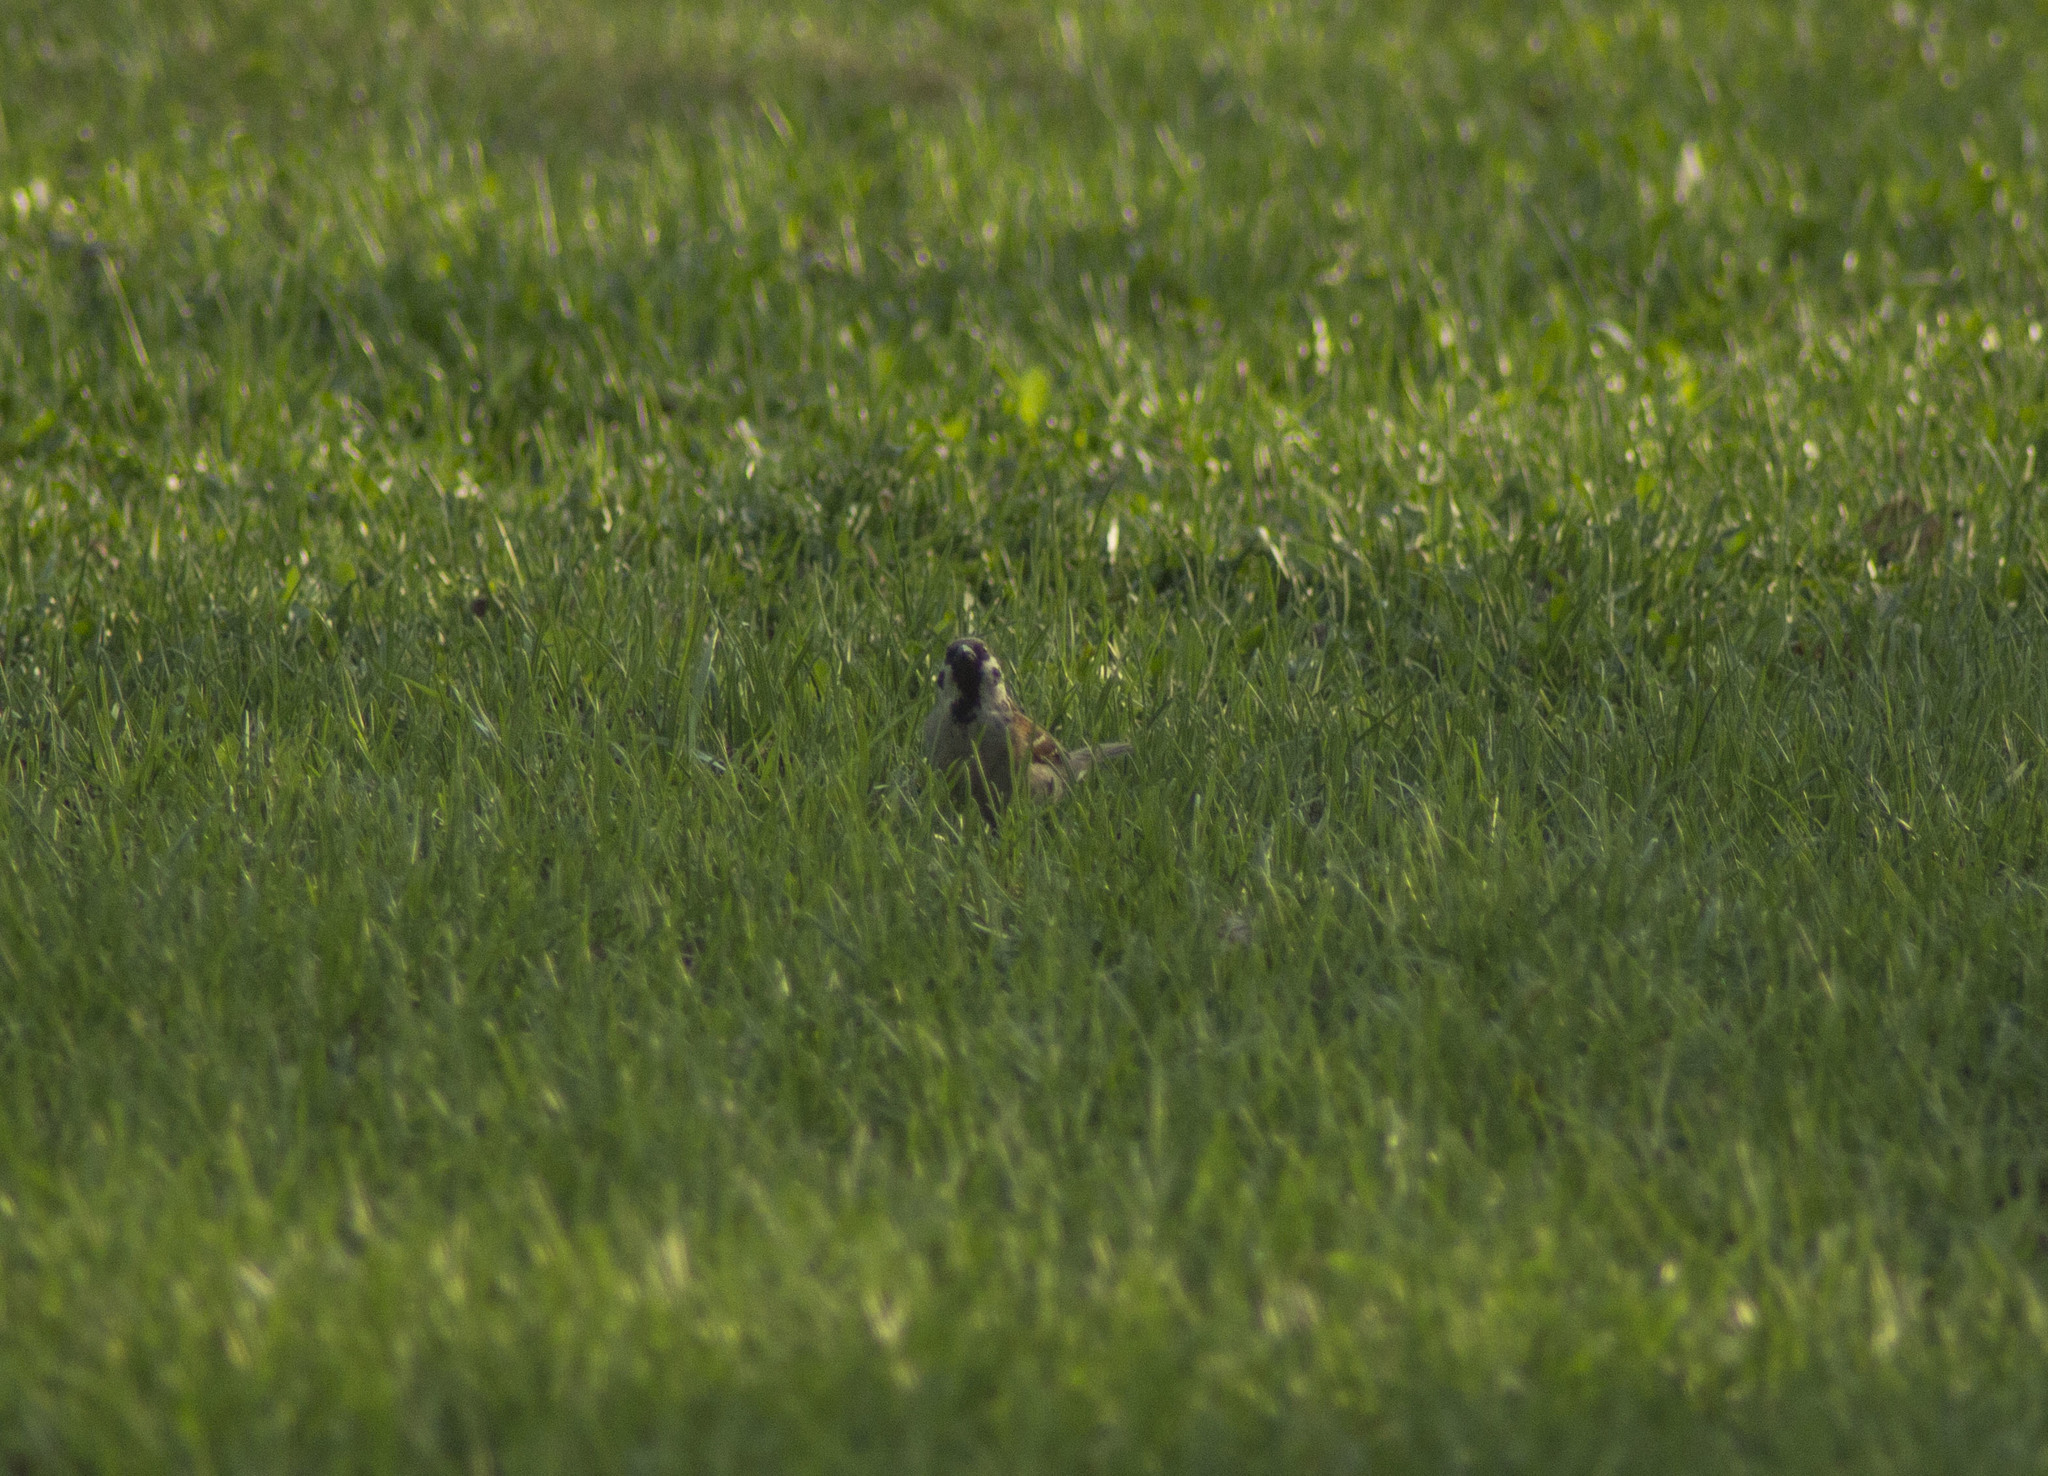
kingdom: Animalia
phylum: Chordata
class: Aves
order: Passeriformes
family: Passeridae
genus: Passer
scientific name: Passer montanus
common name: Eurasian tree sparrow
